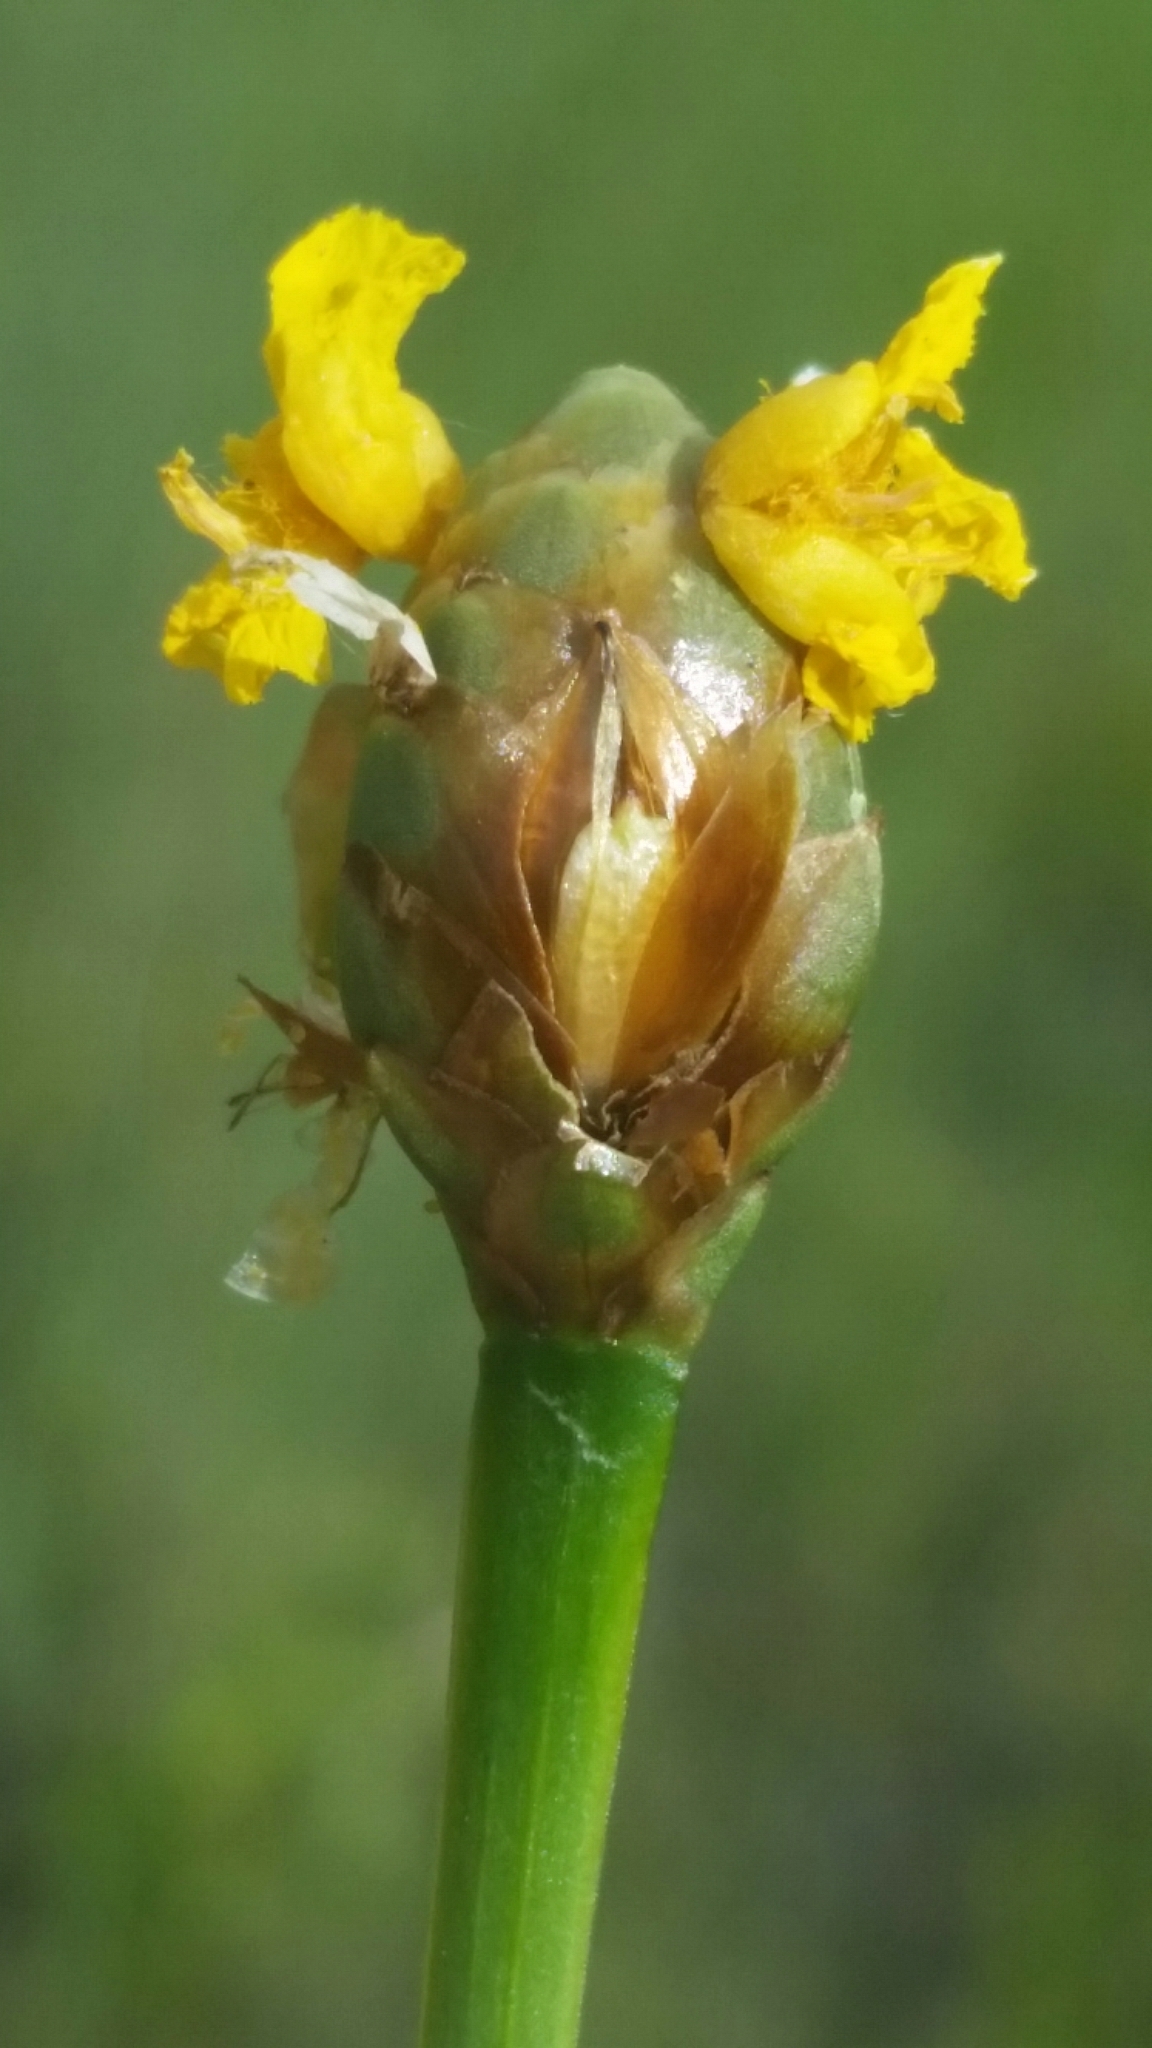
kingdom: Plantae
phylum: Tracheophyta
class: Liliopsida
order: Poales
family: Xyridaceae
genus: Xyris
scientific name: Xyris ambigua
